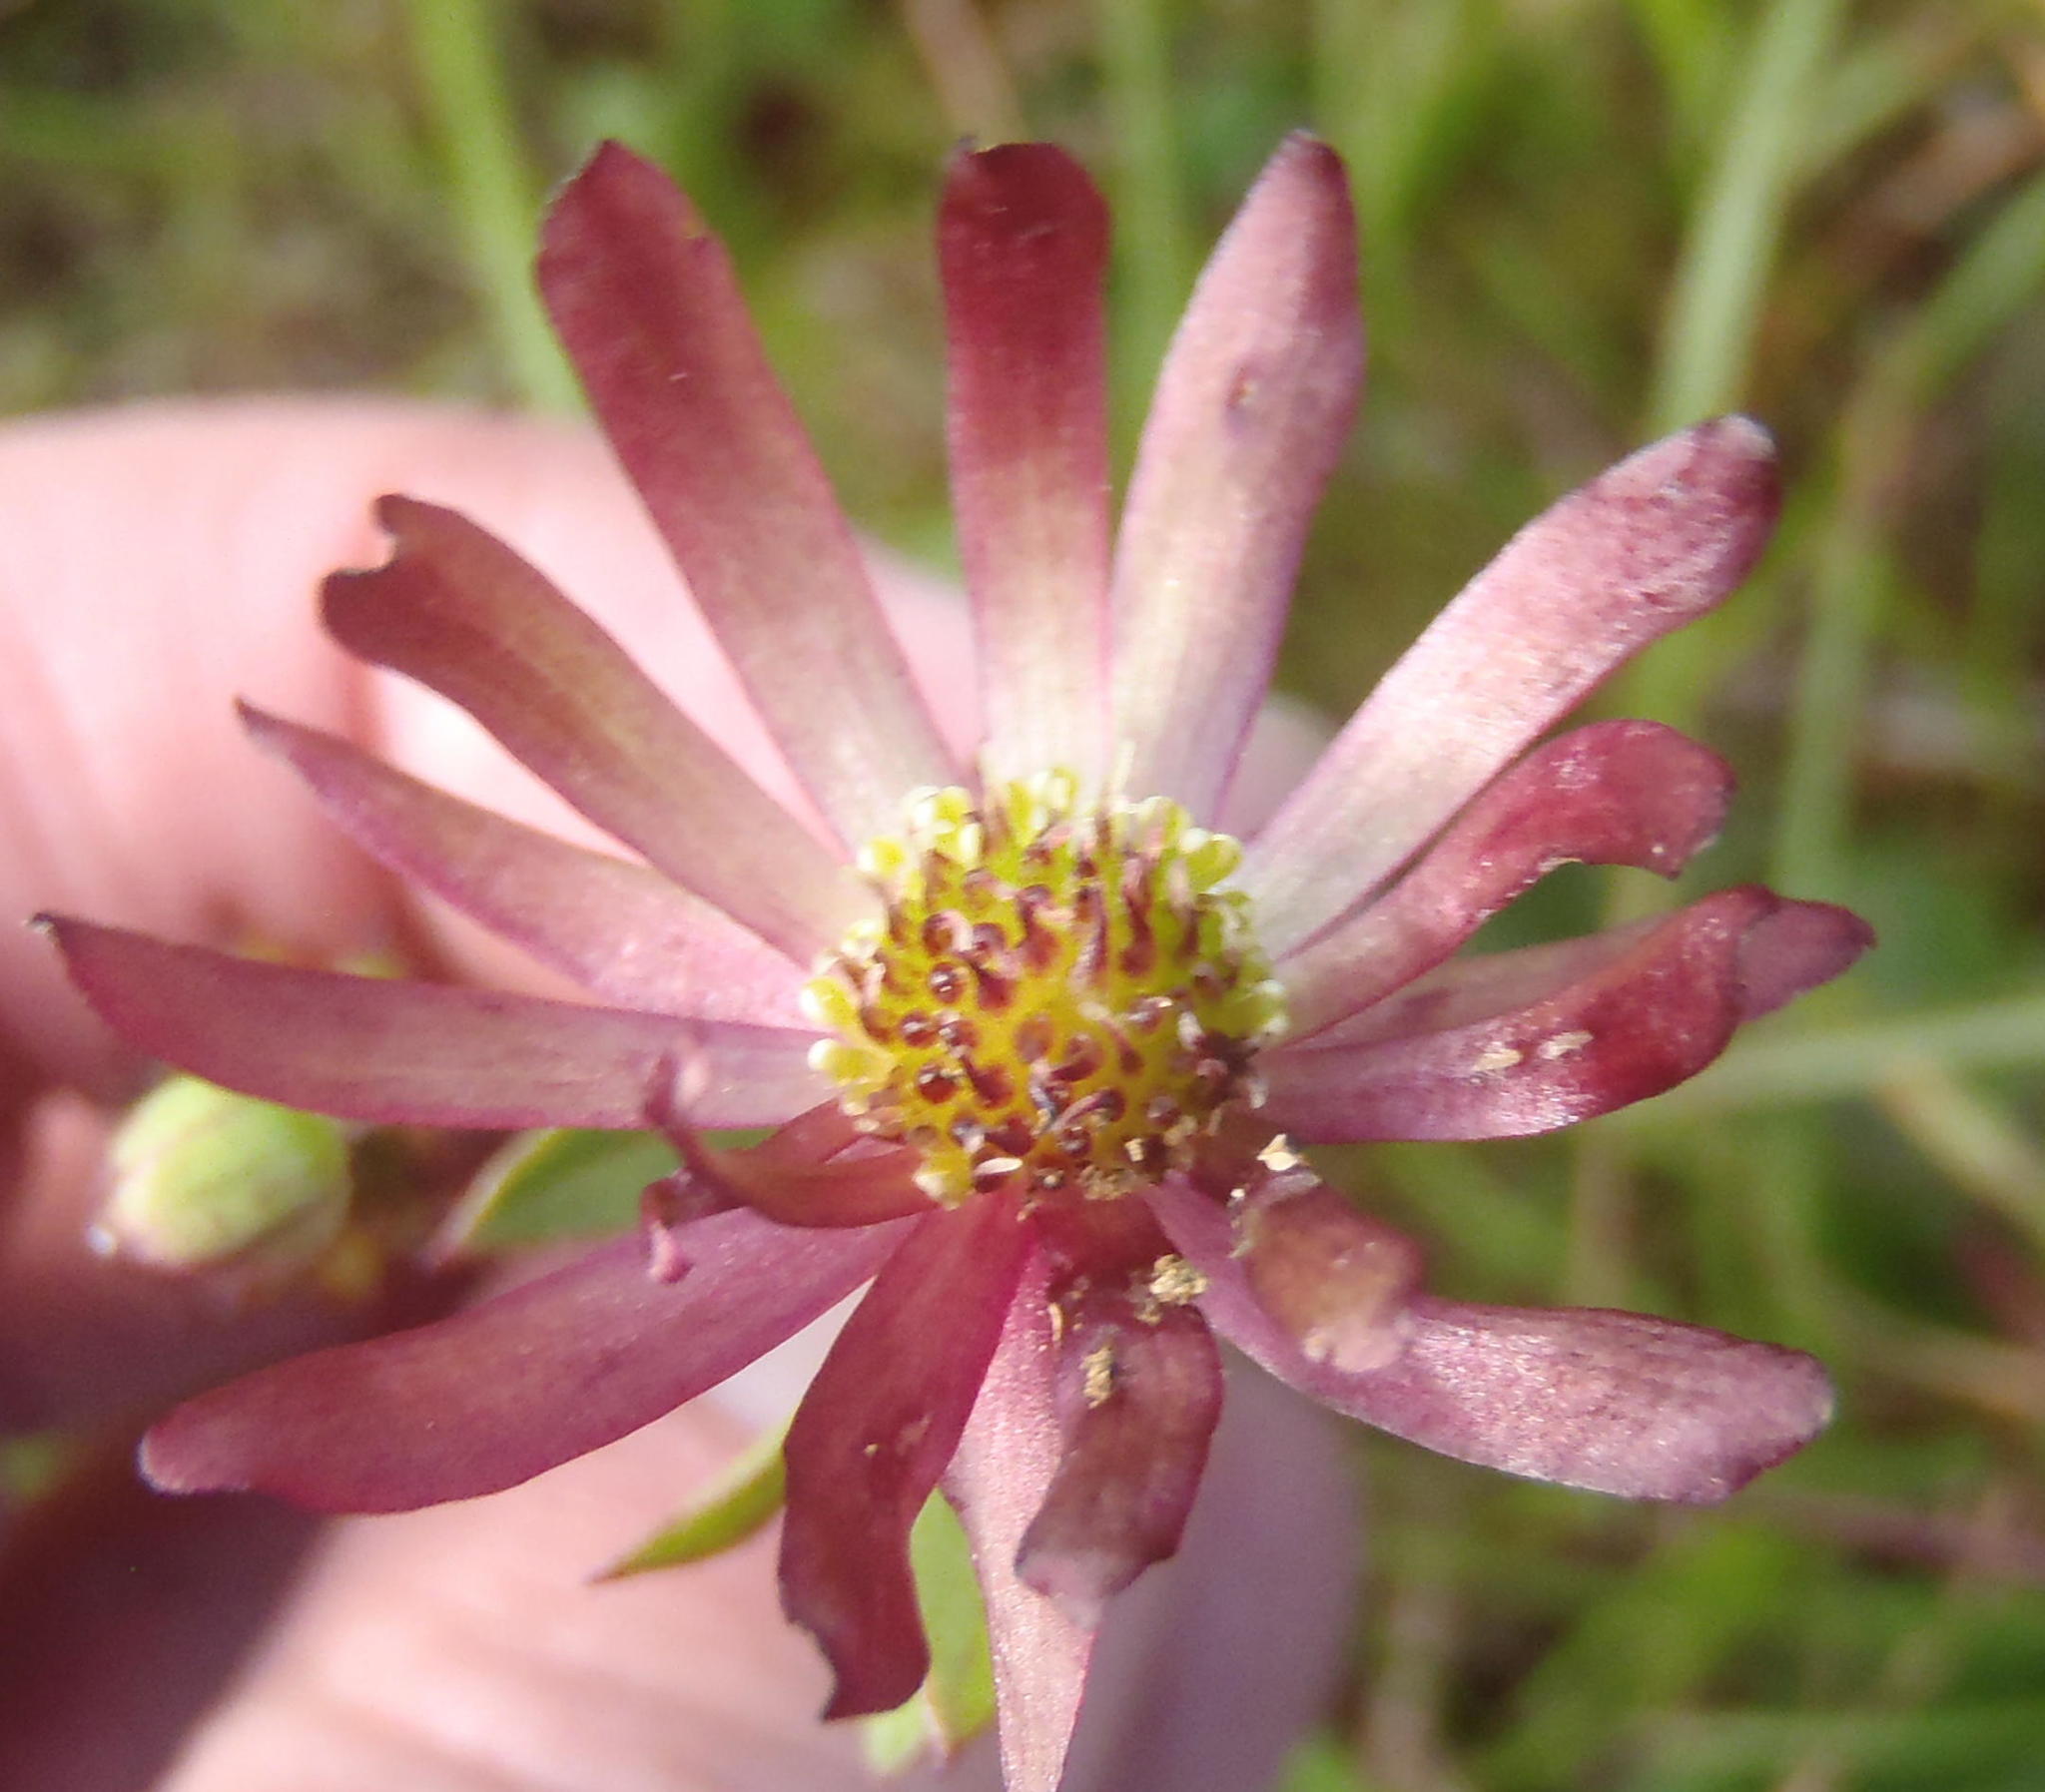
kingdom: Plantae
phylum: Tracheophyta
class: Magnoliopsida
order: Ranunculales
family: Ranunculaceae
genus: Knowltonia
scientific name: Knowltonia vesicatoria
